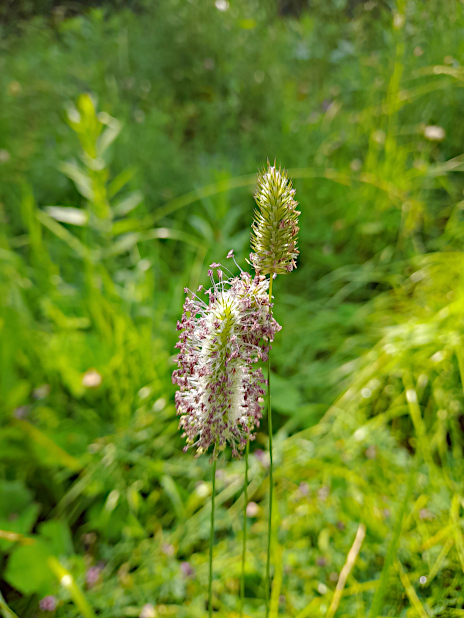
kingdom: Plantae
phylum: Tracheophyta
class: Liliopsida
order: Poales
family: Poaceae
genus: Phleum
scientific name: Phleum pratense
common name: Timothy grass
